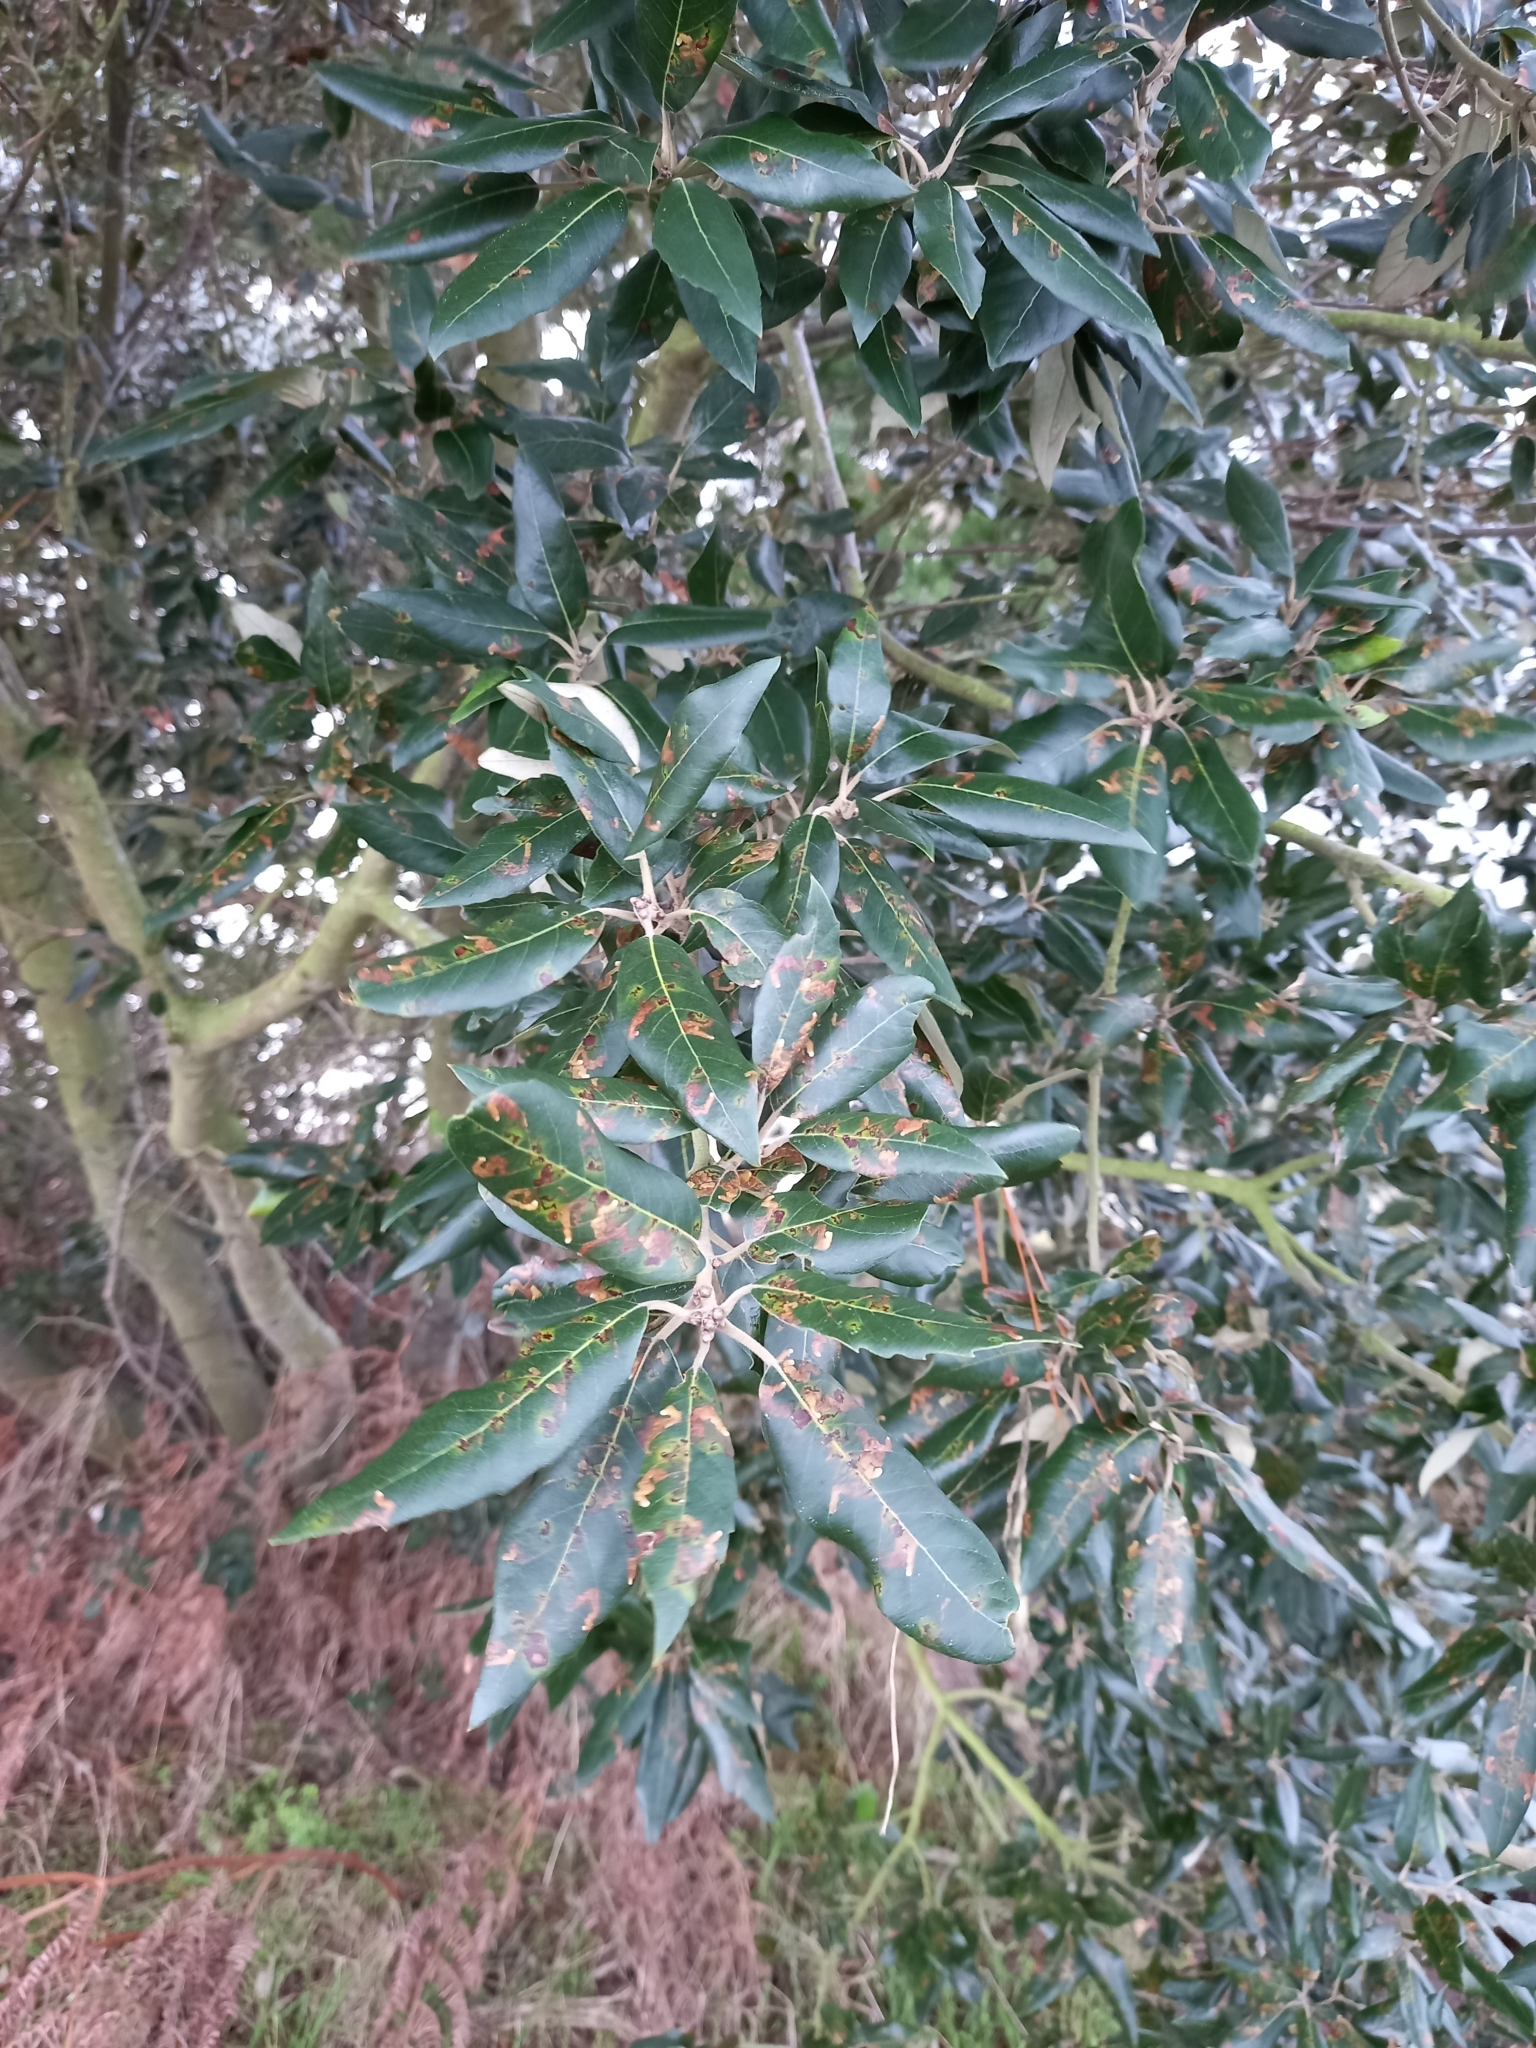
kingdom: Plantae
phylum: Tracheophyta
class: Magnoliopsida
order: Fagales
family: Fagaceae
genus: Quercus
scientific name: Quercus ilex
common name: Evergreen oak
